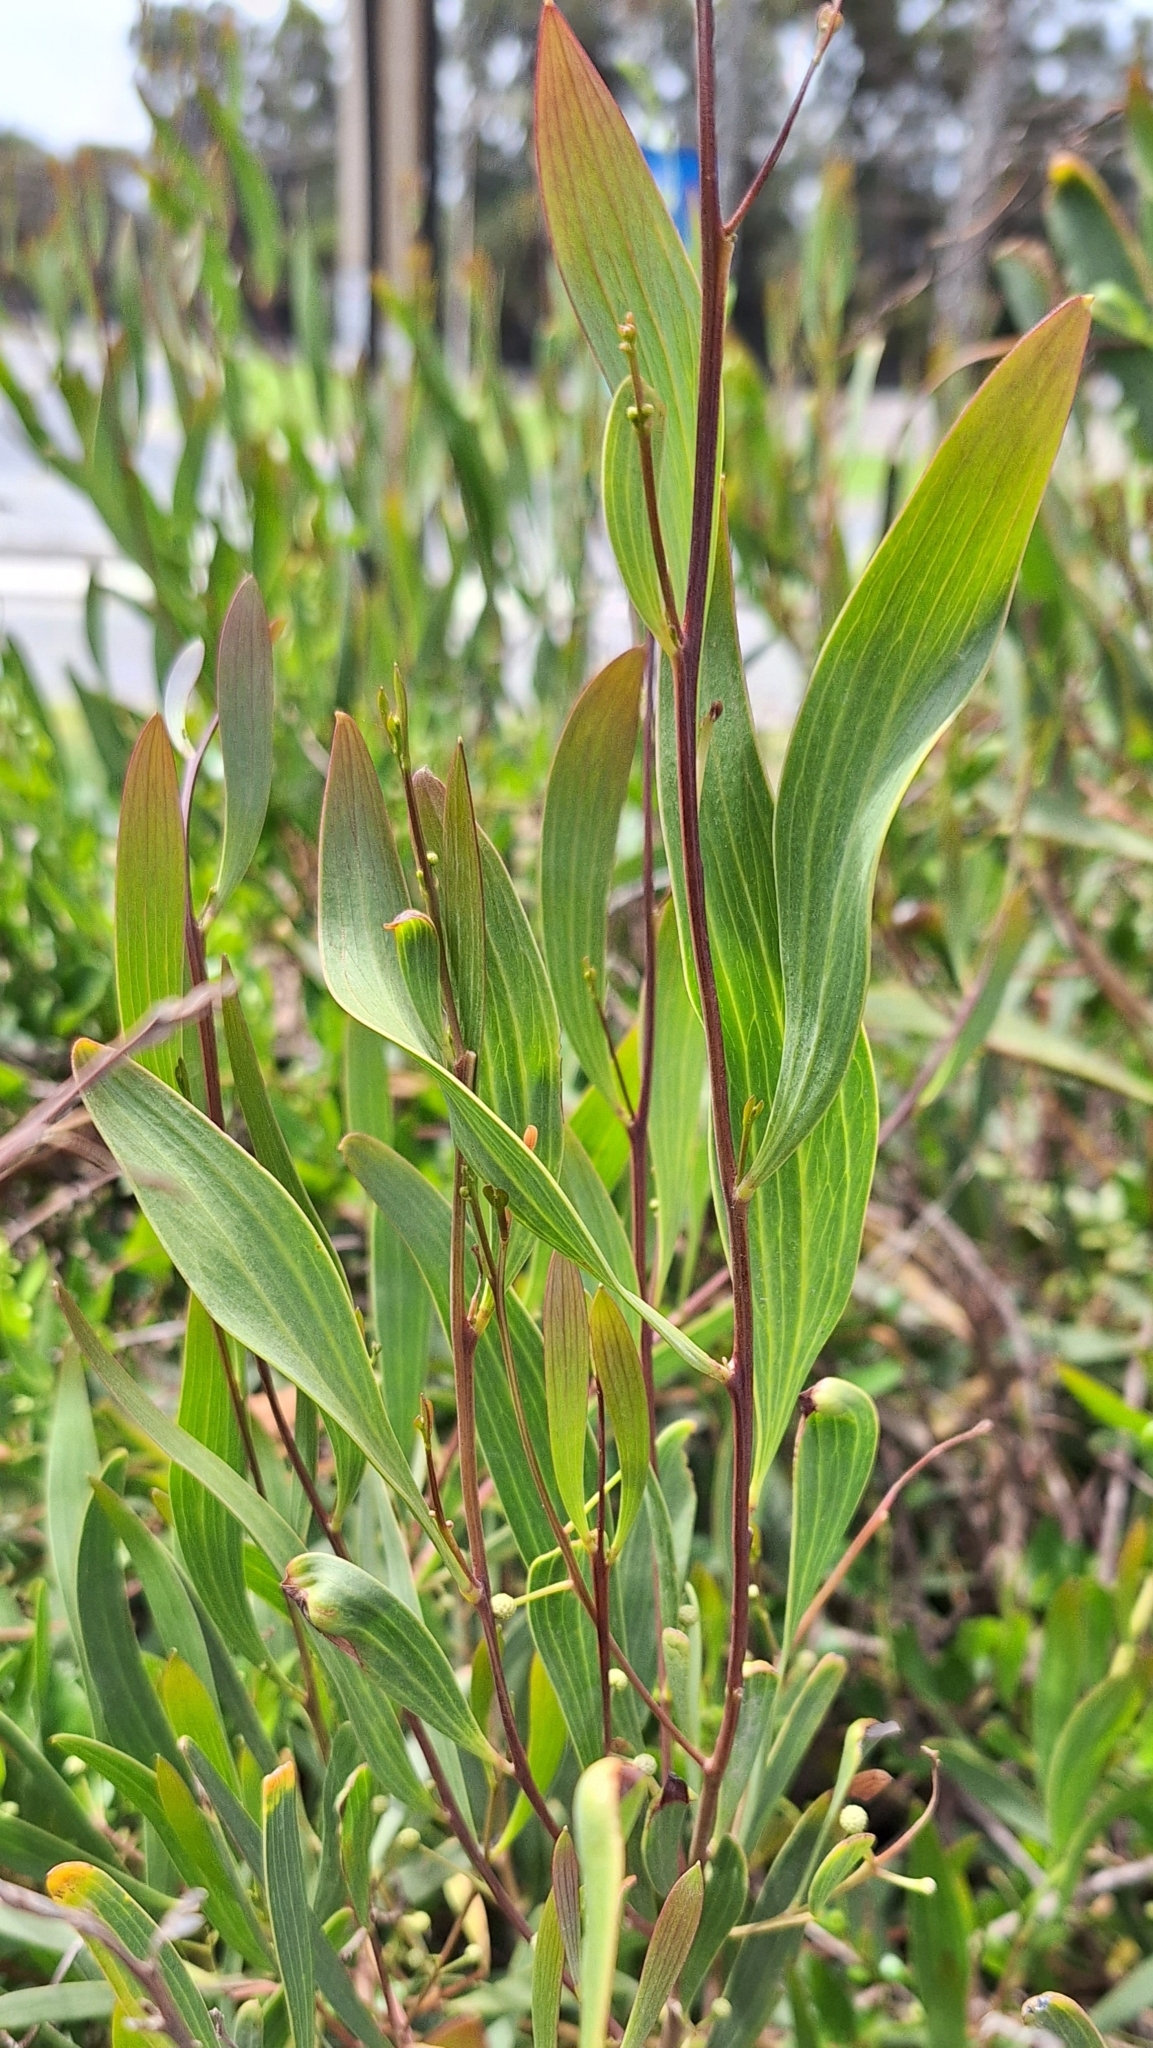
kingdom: Plantae
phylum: Tracheophyta
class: Magnoliopsida
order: Fabales
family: Fabaceae
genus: Acacia
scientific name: Acacia cyclops
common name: Coastal wattle
